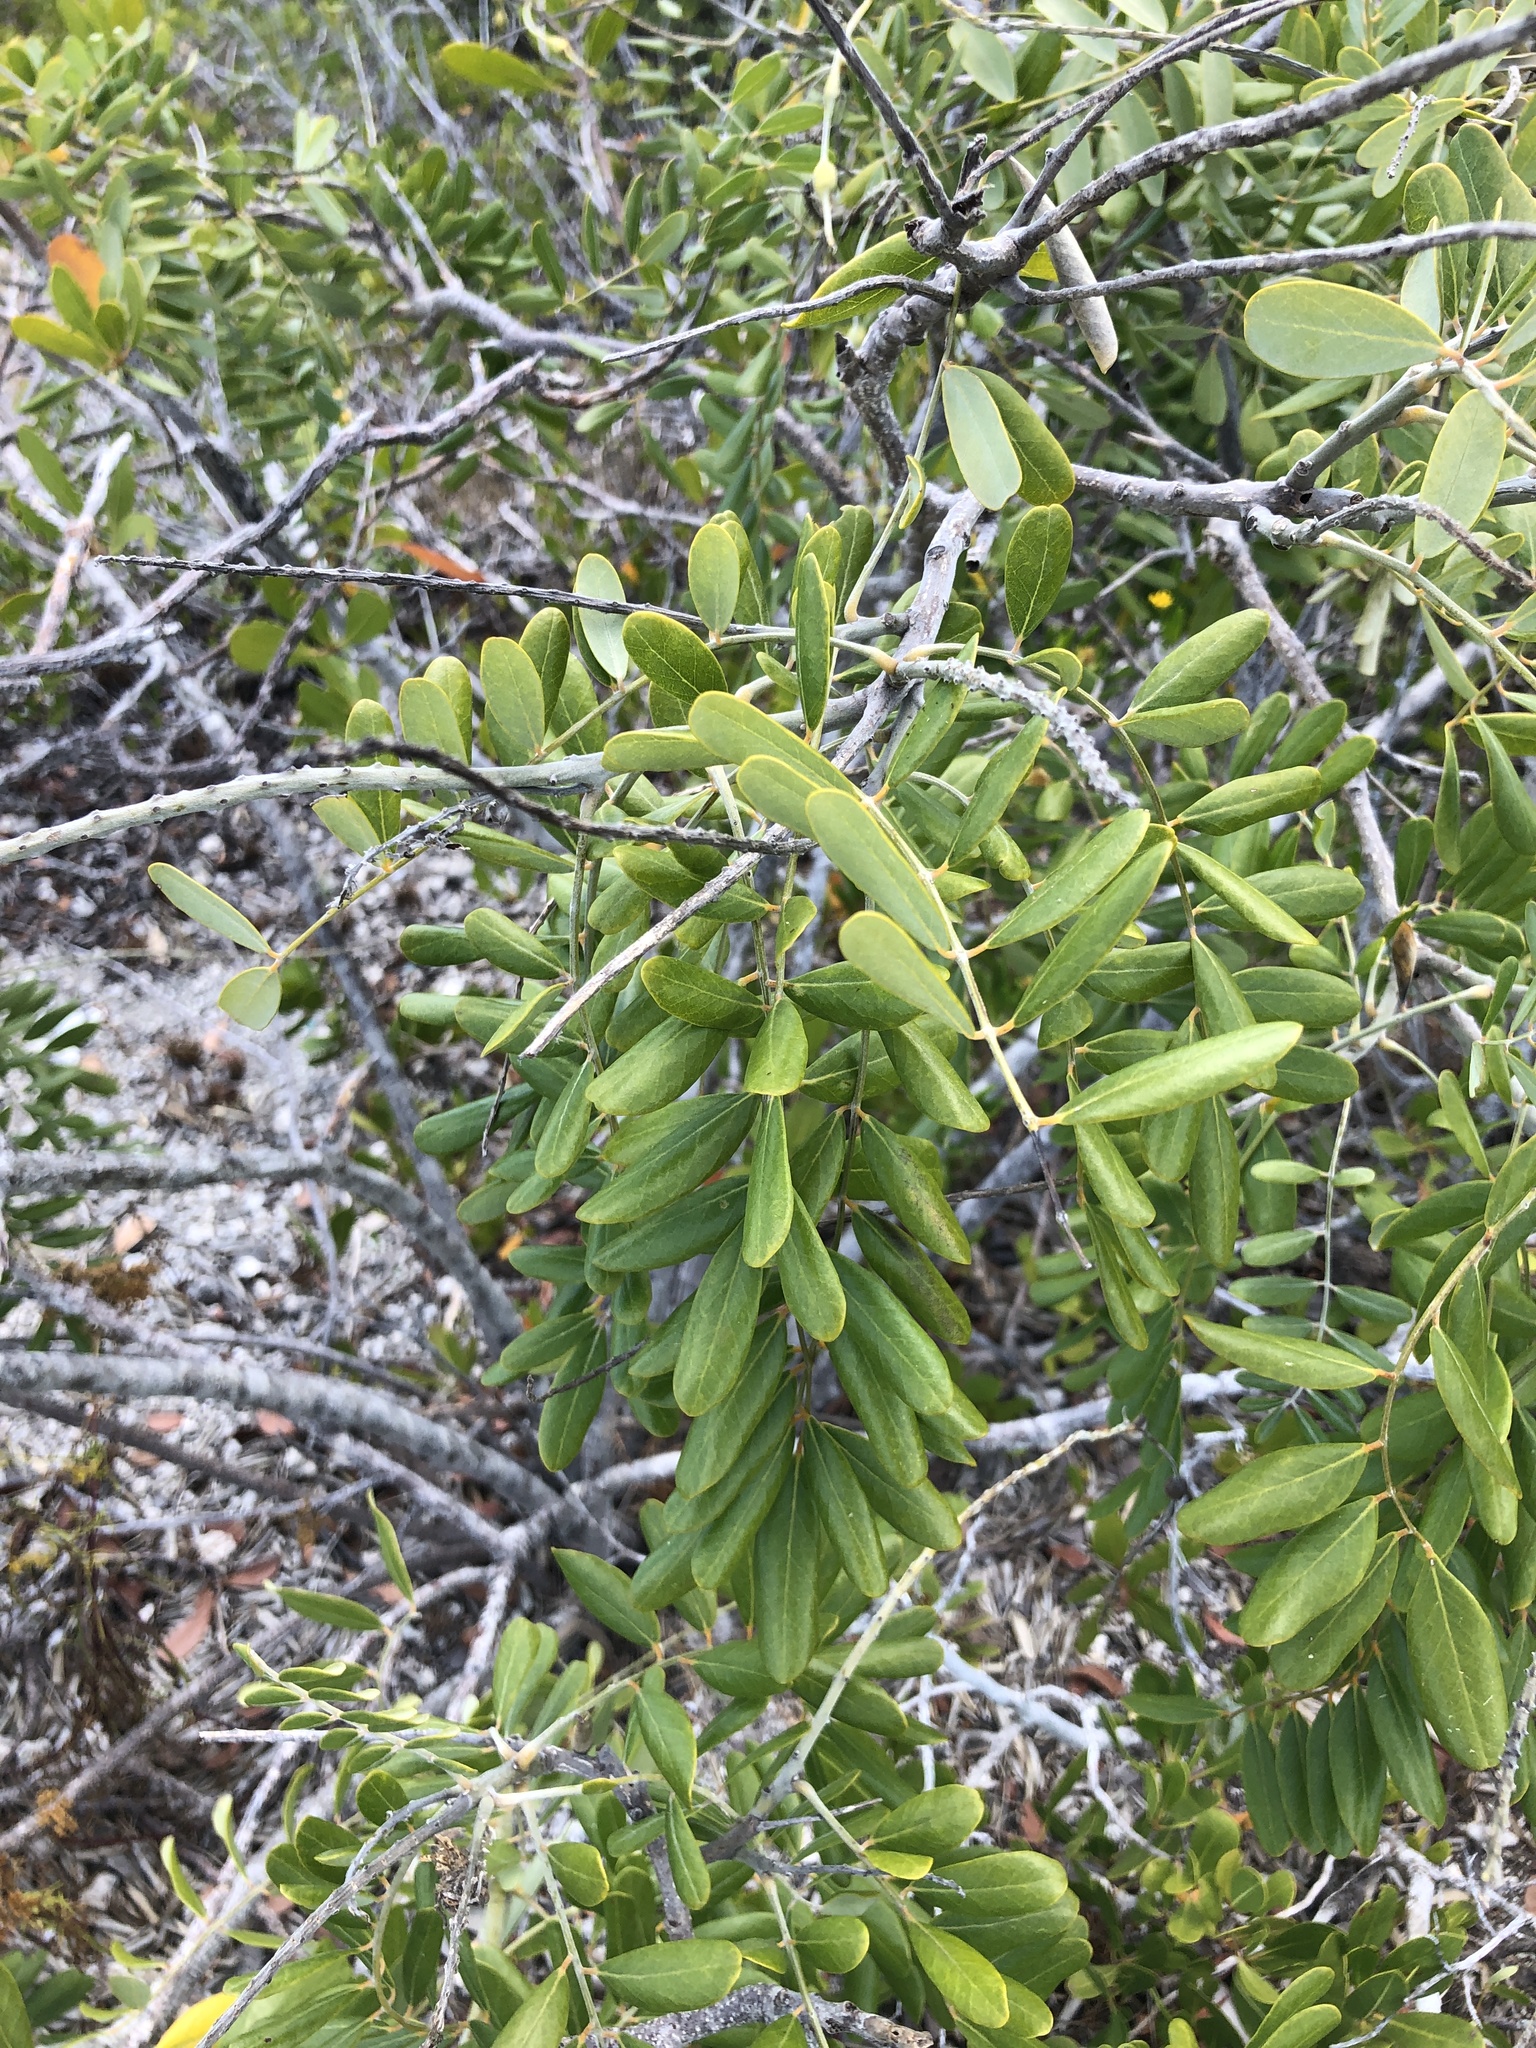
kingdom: Plantae
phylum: Tracheophyta
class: Magnoliopsida
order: Fabales
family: Fabaceae
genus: Sophora
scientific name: Sophora tomentosa
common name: Yellow necklacepod
